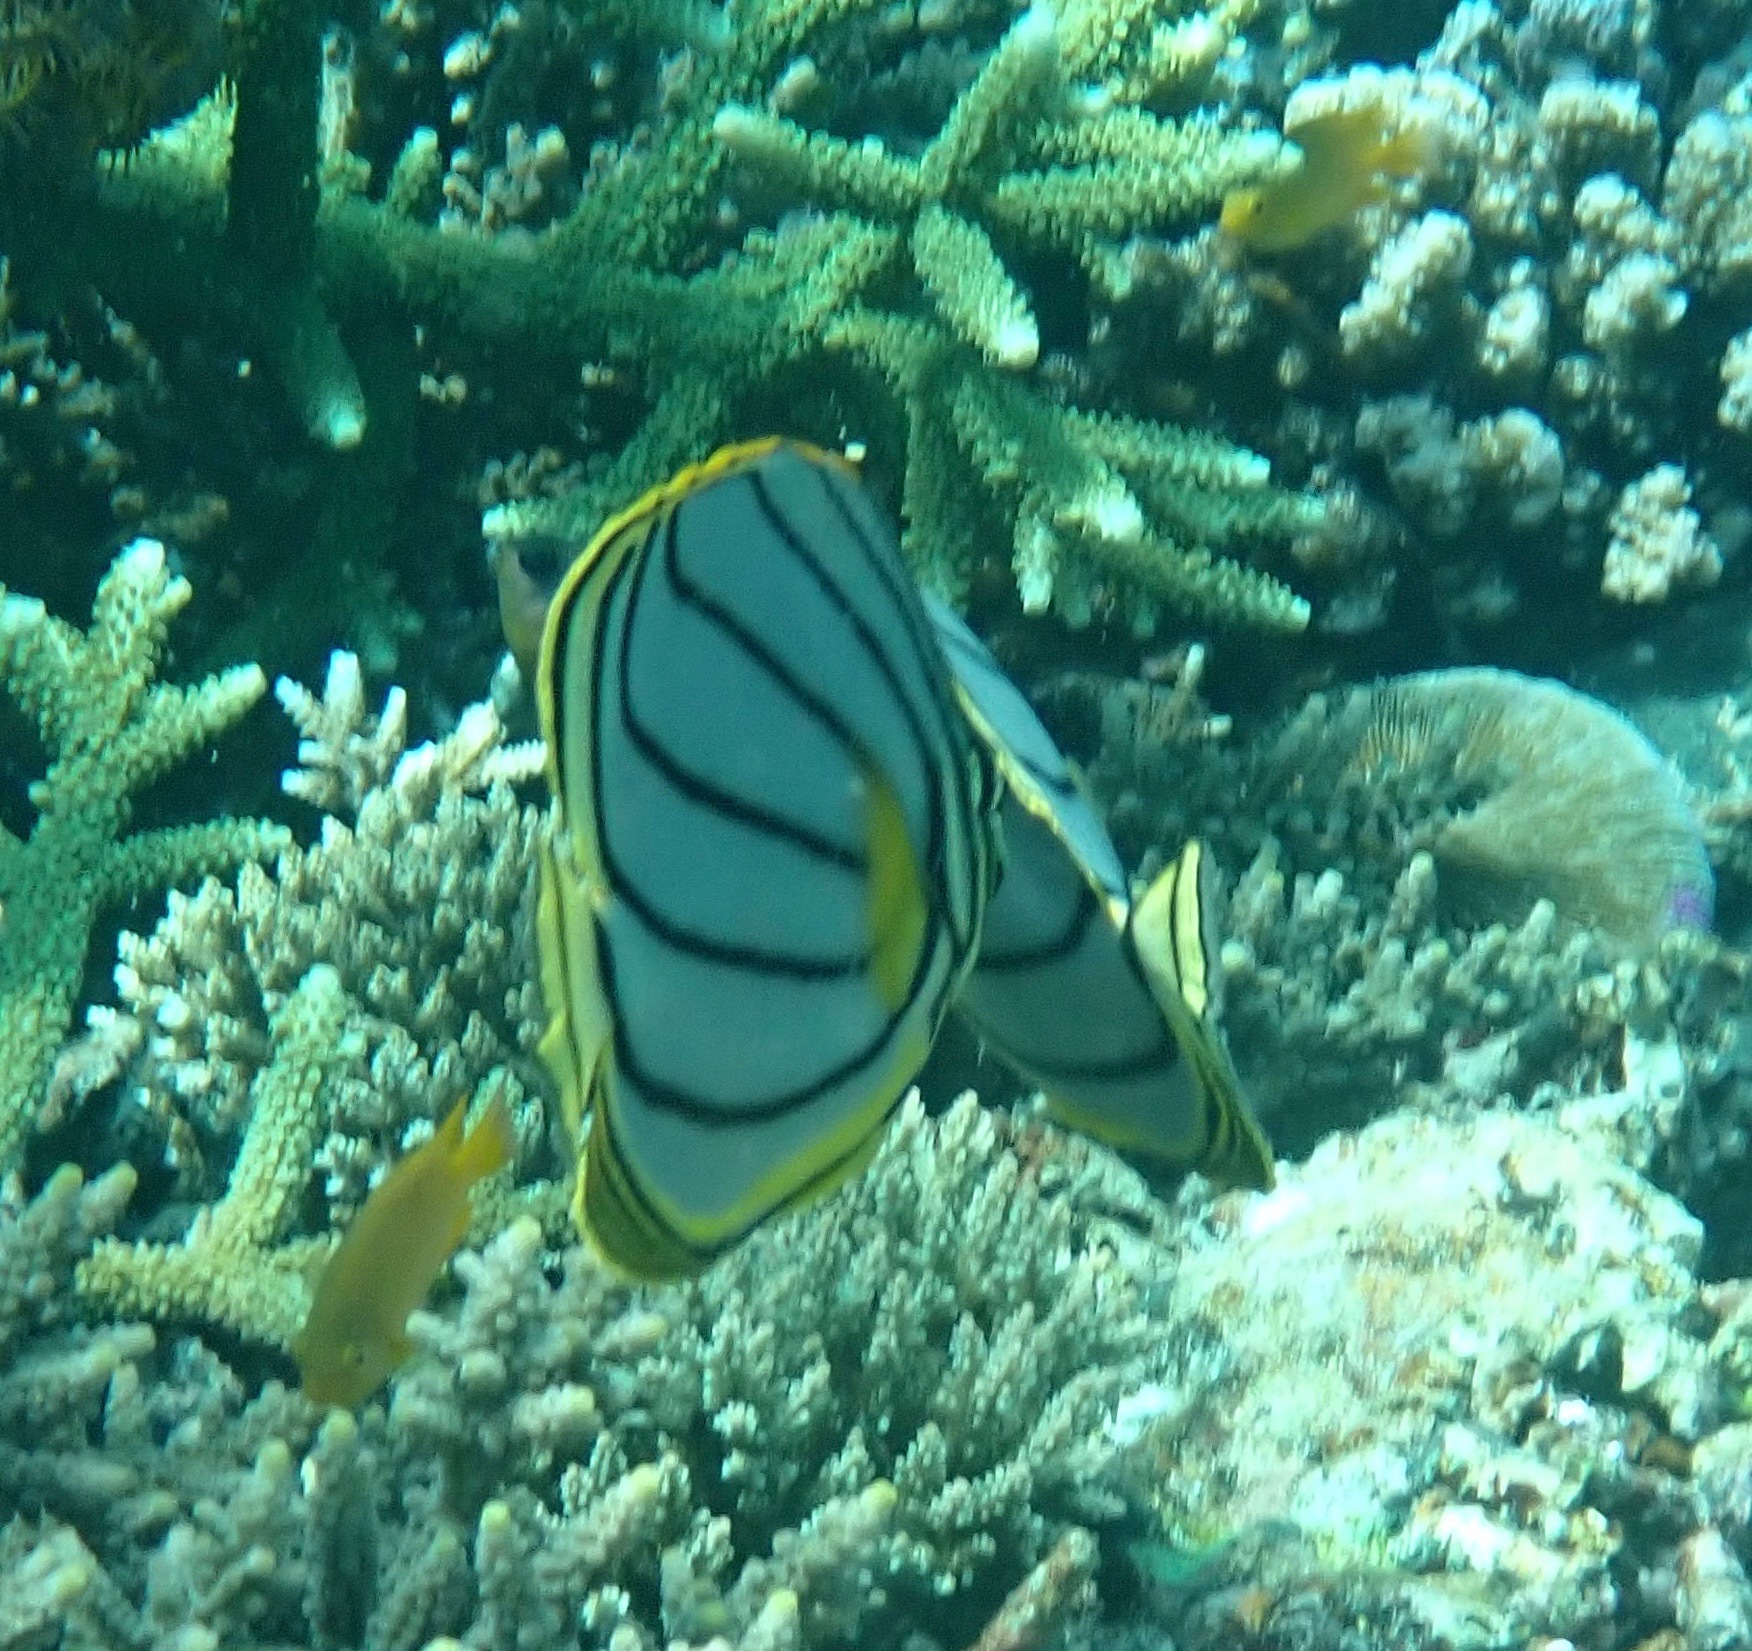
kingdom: Animalia
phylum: Chordata
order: Perciformes
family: Chaetodontidae
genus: Chaetodon
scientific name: Chaetodon meyeri
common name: Meyer's butterflyfish
